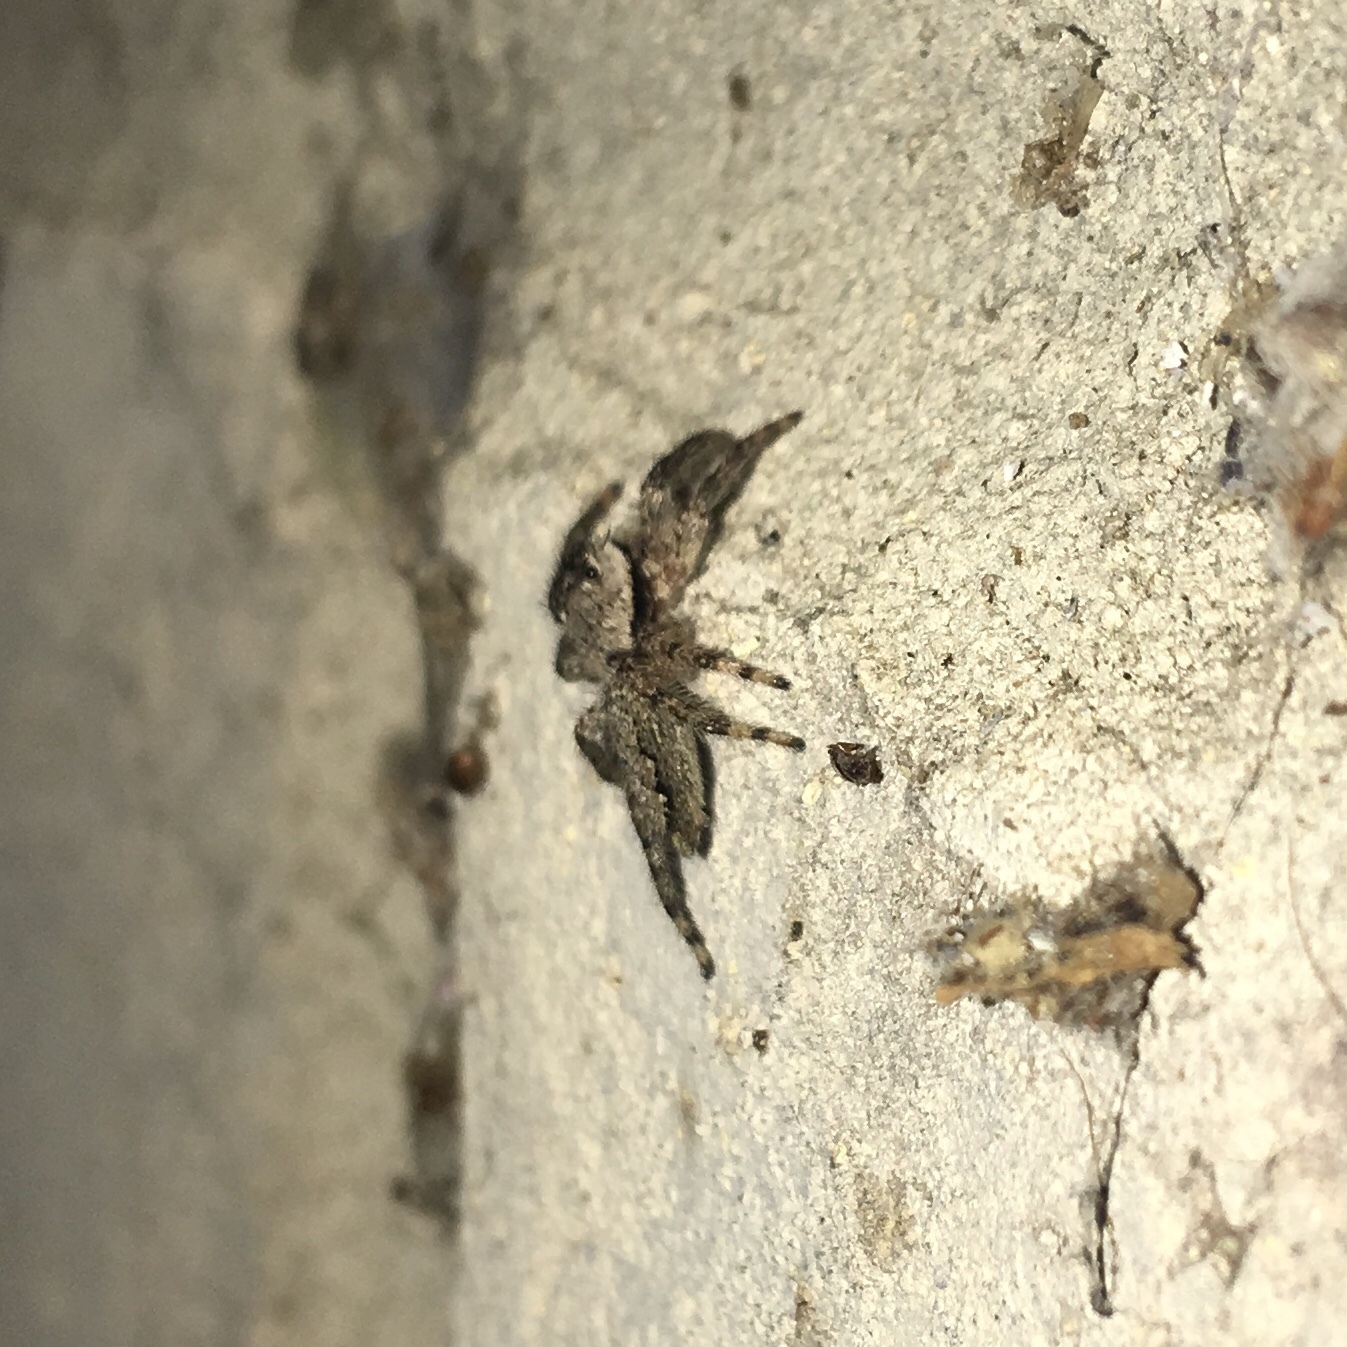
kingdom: Animalia
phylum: Arthropoda
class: Arachnida
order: Araneae
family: Salticidae
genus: Platycryptus
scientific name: Platycryptus undatus
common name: Tan jumping spider
